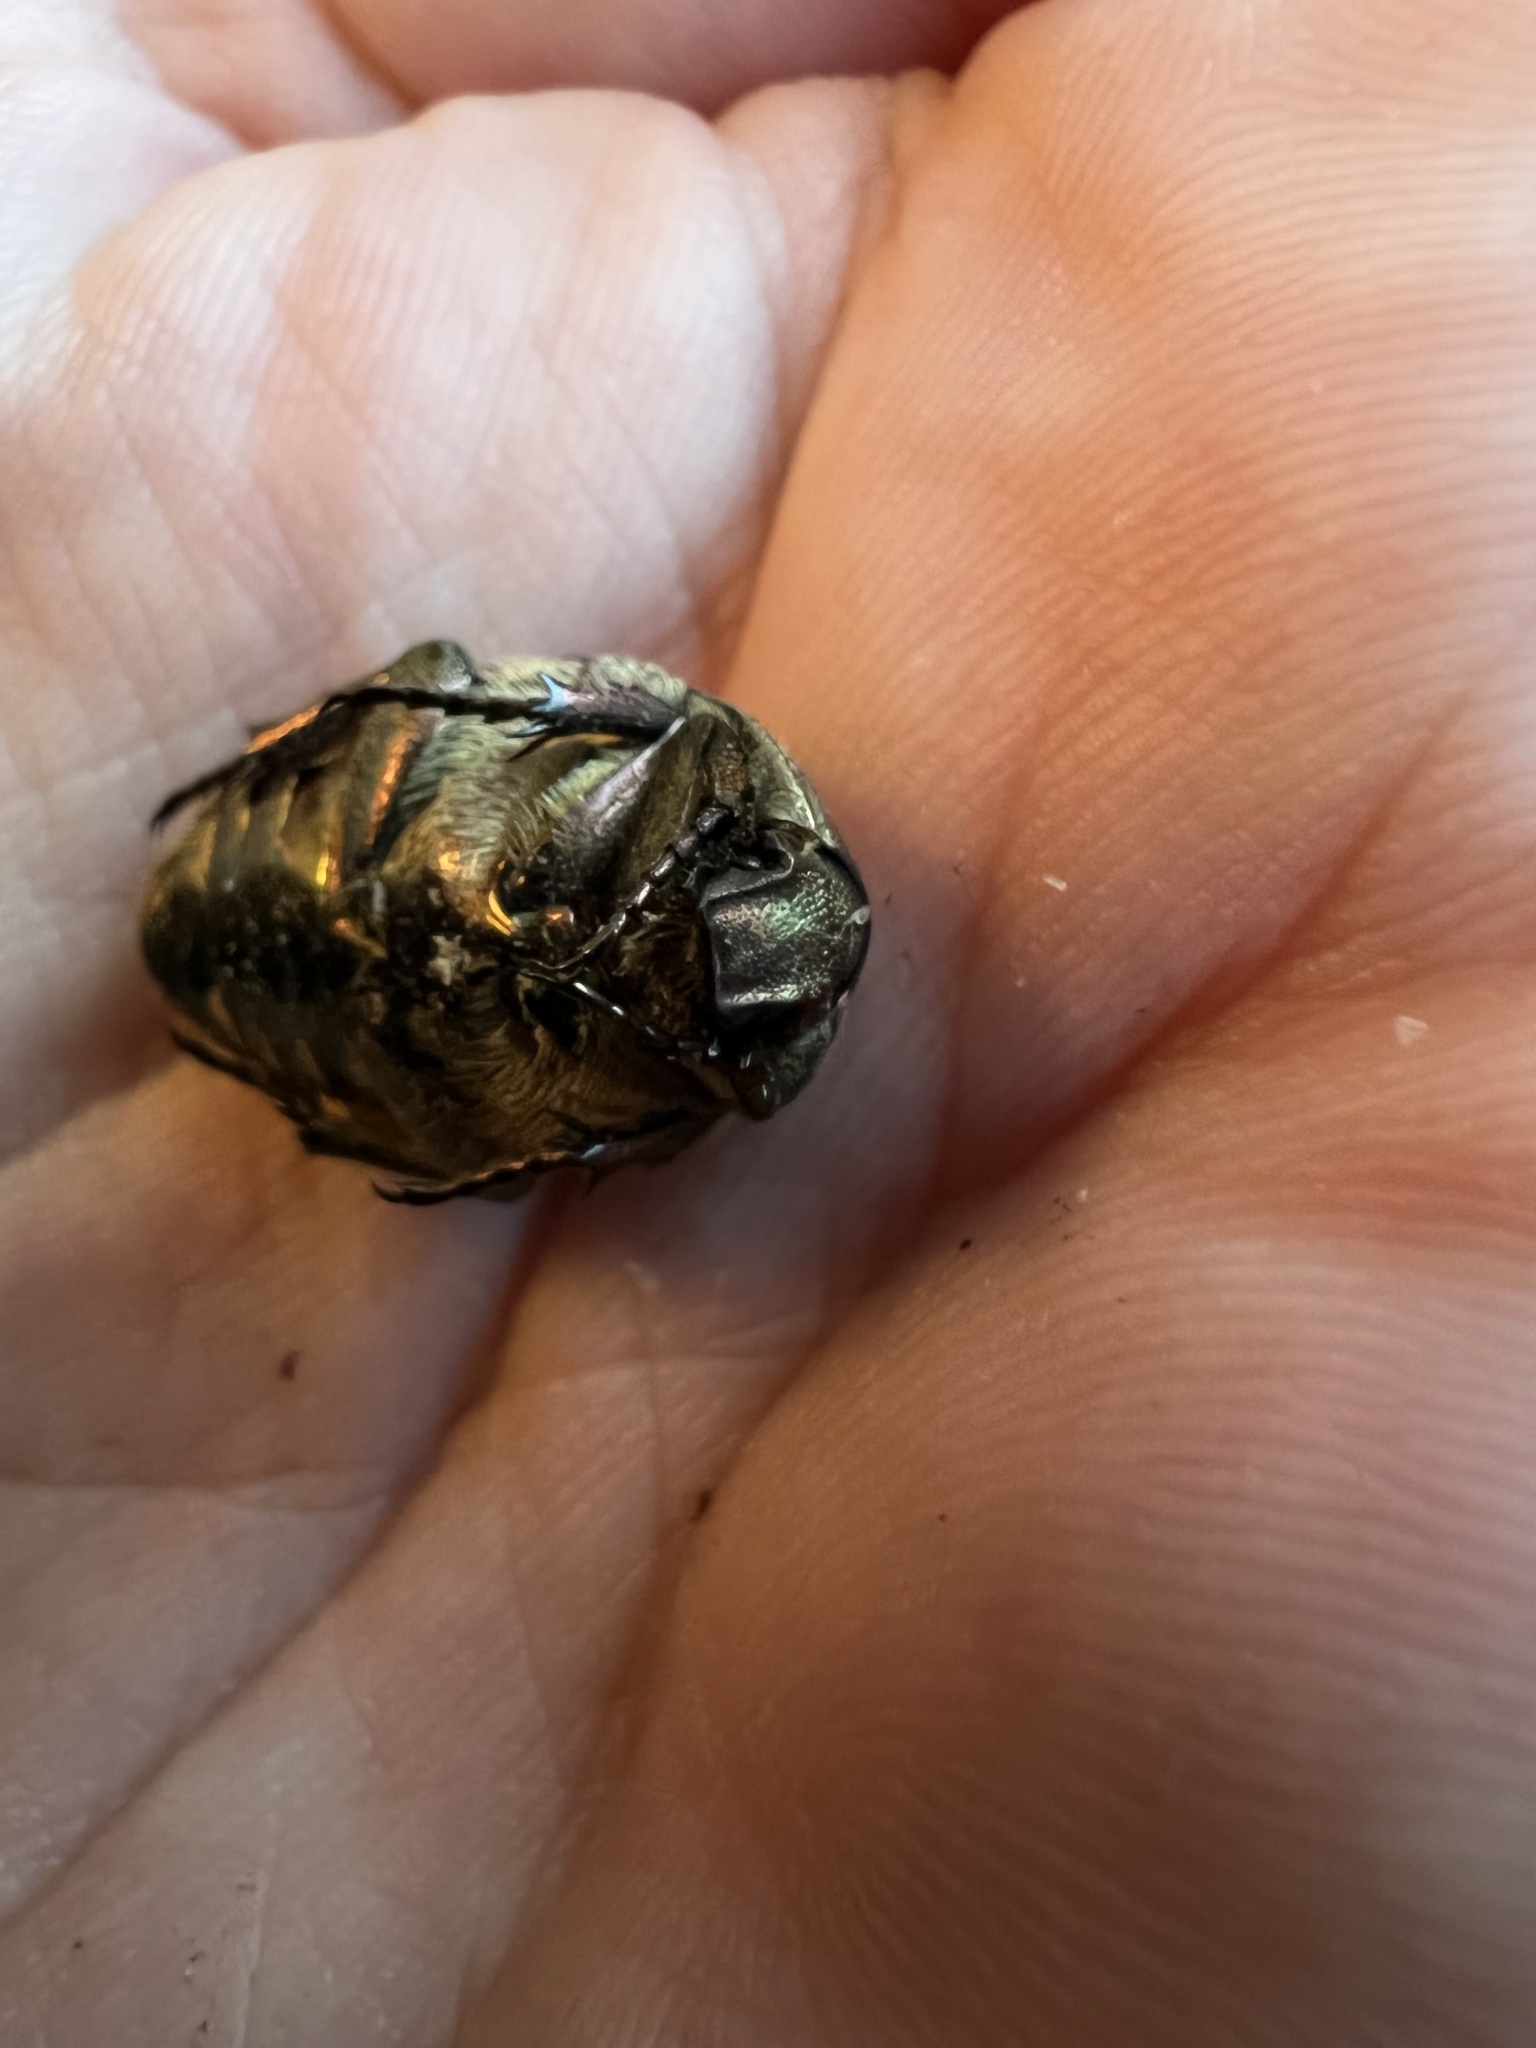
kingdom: Animalia
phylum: Arthropoda
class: Insecta
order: Coleoptera
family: Scarabaeidae
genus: Protaetia
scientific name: Protaetia cuprea
